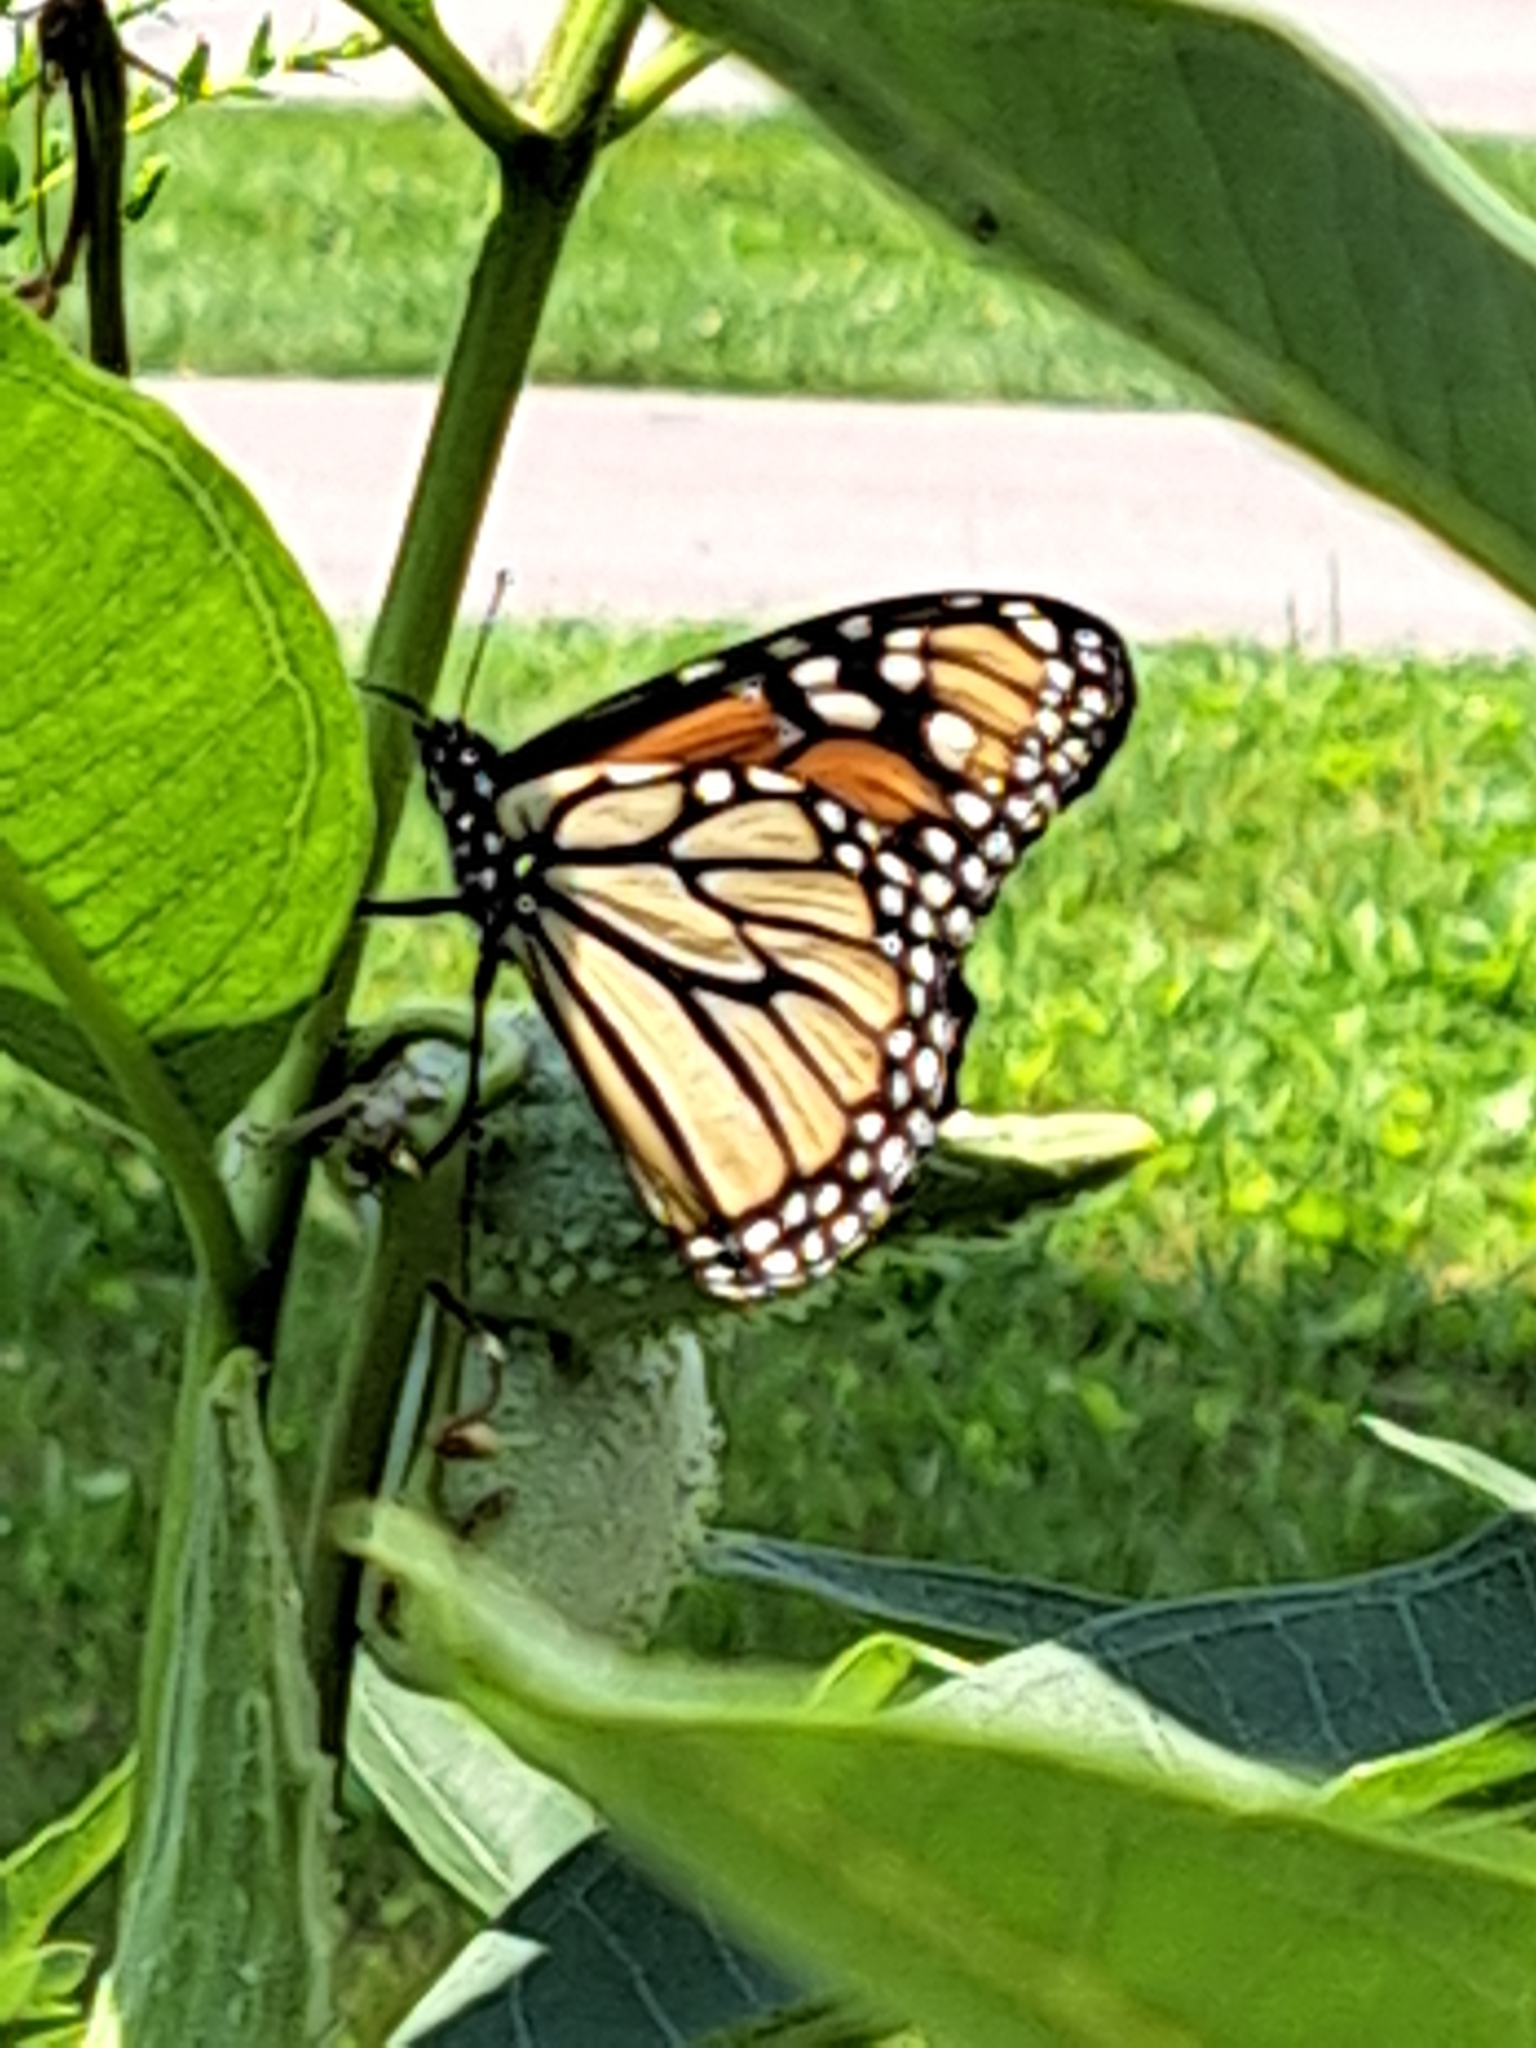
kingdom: Animalia
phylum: Arthropoda
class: Insecta
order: Lepidoptera
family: Nymphalidae
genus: Danaus
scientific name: Danaus plexippus
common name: Monarch
